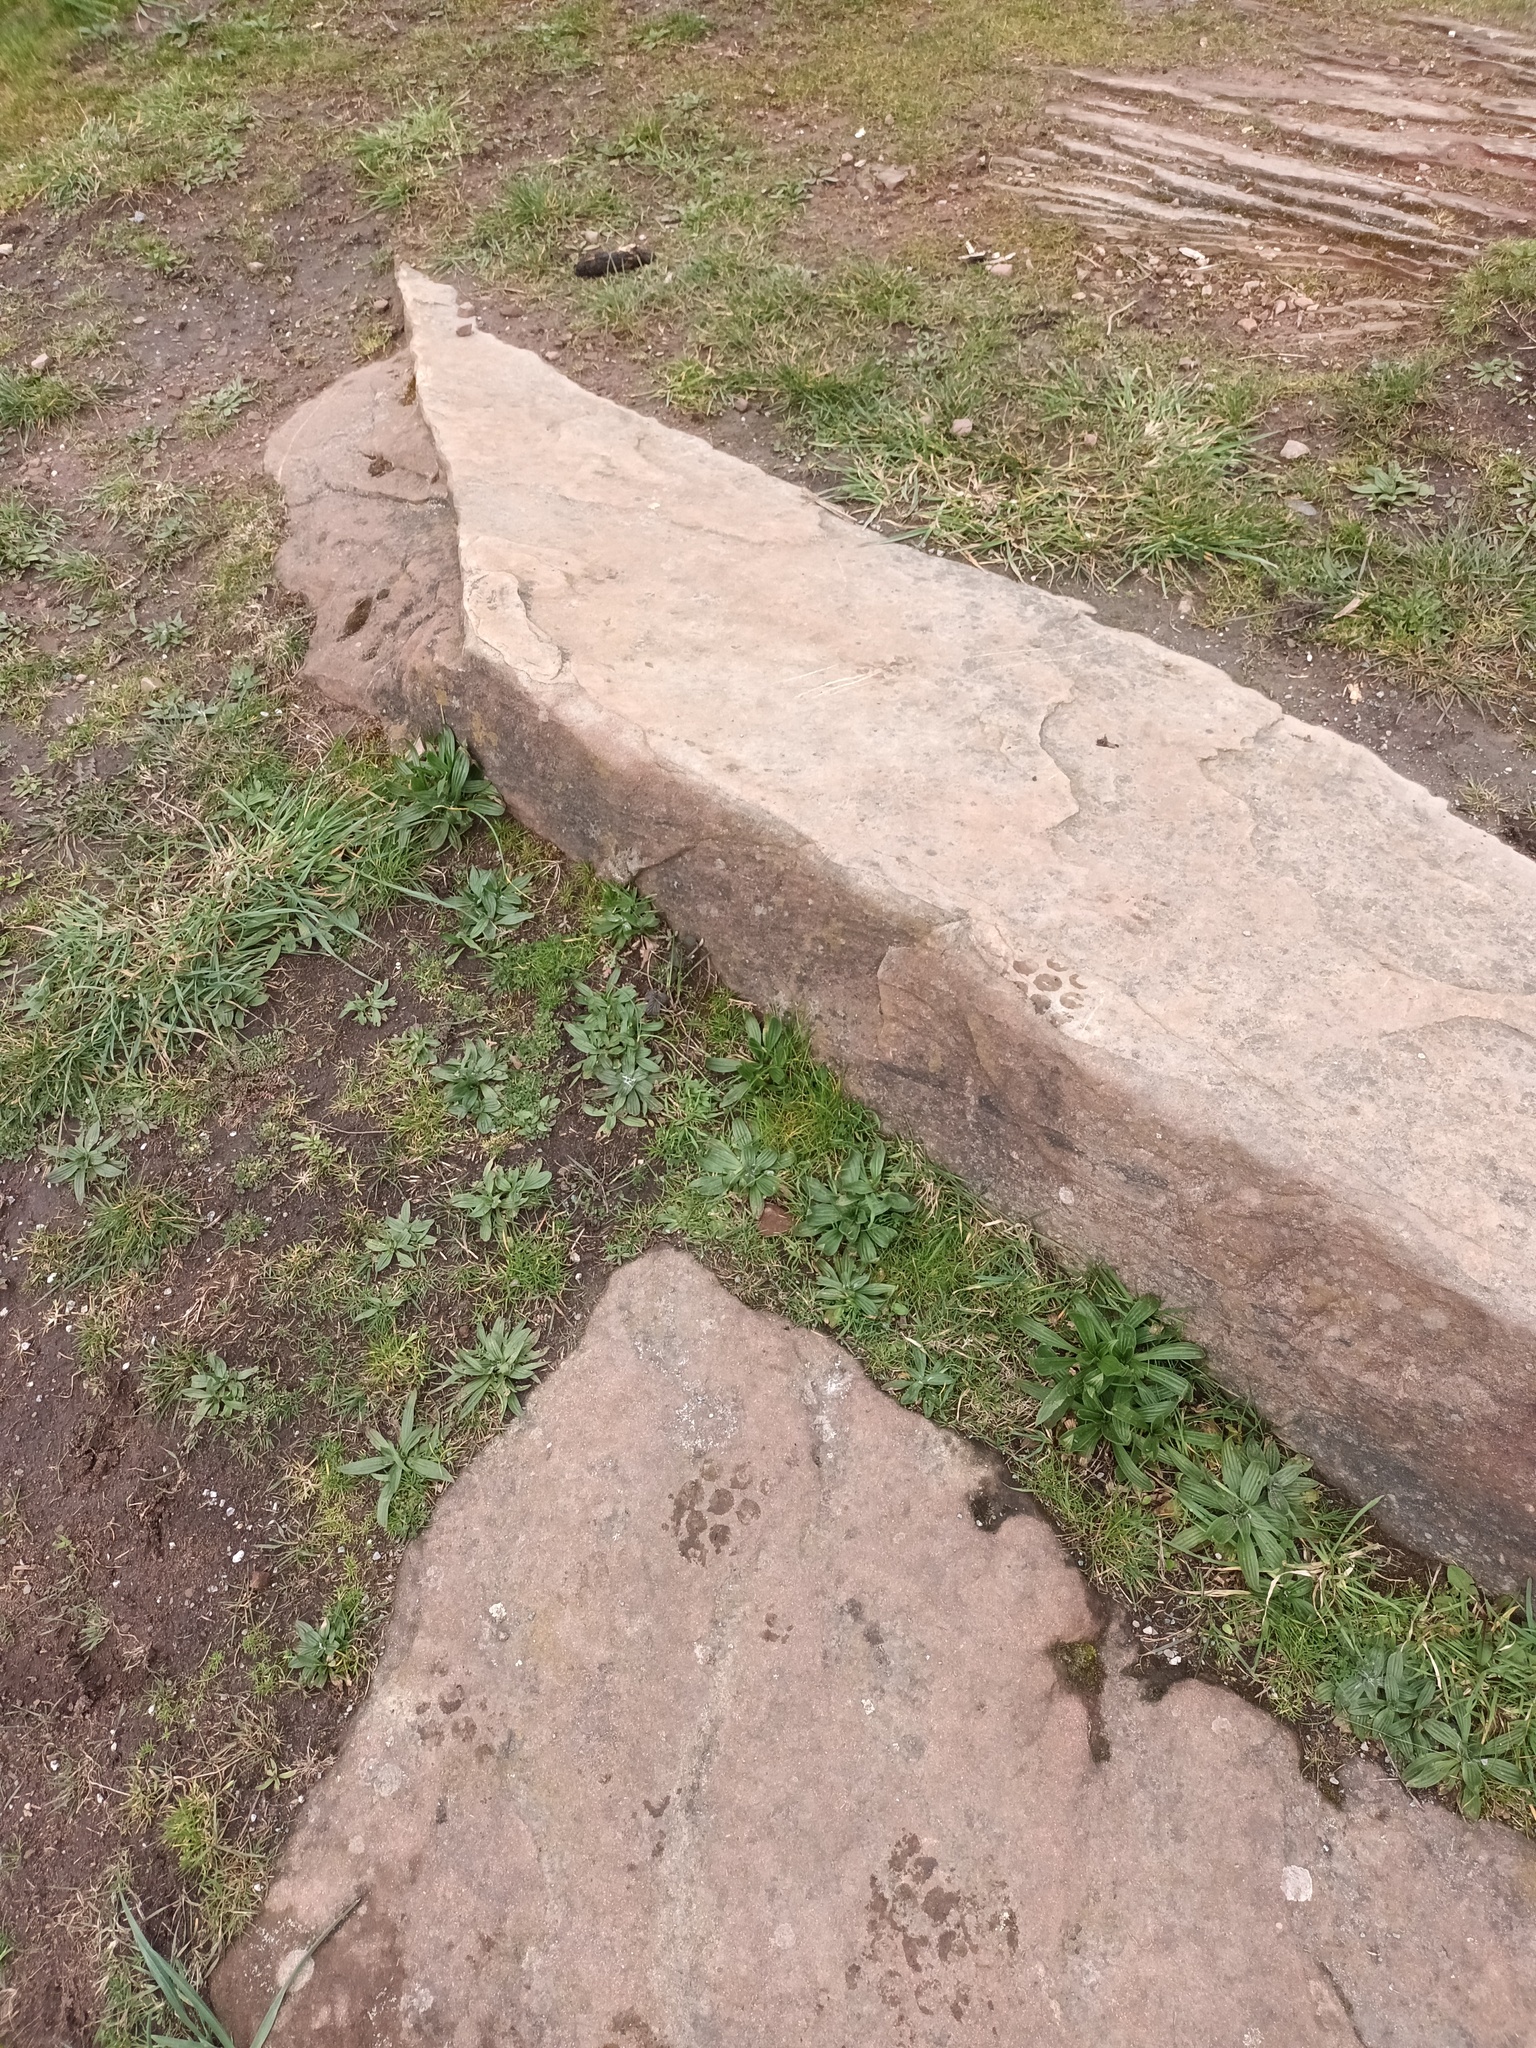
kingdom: Plantae
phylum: Tracheophyta
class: Magnoliopsida
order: Lamiales
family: Plantaginaceae
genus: Plantago
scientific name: Plantago lanceolata
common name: Ribwort plantain
